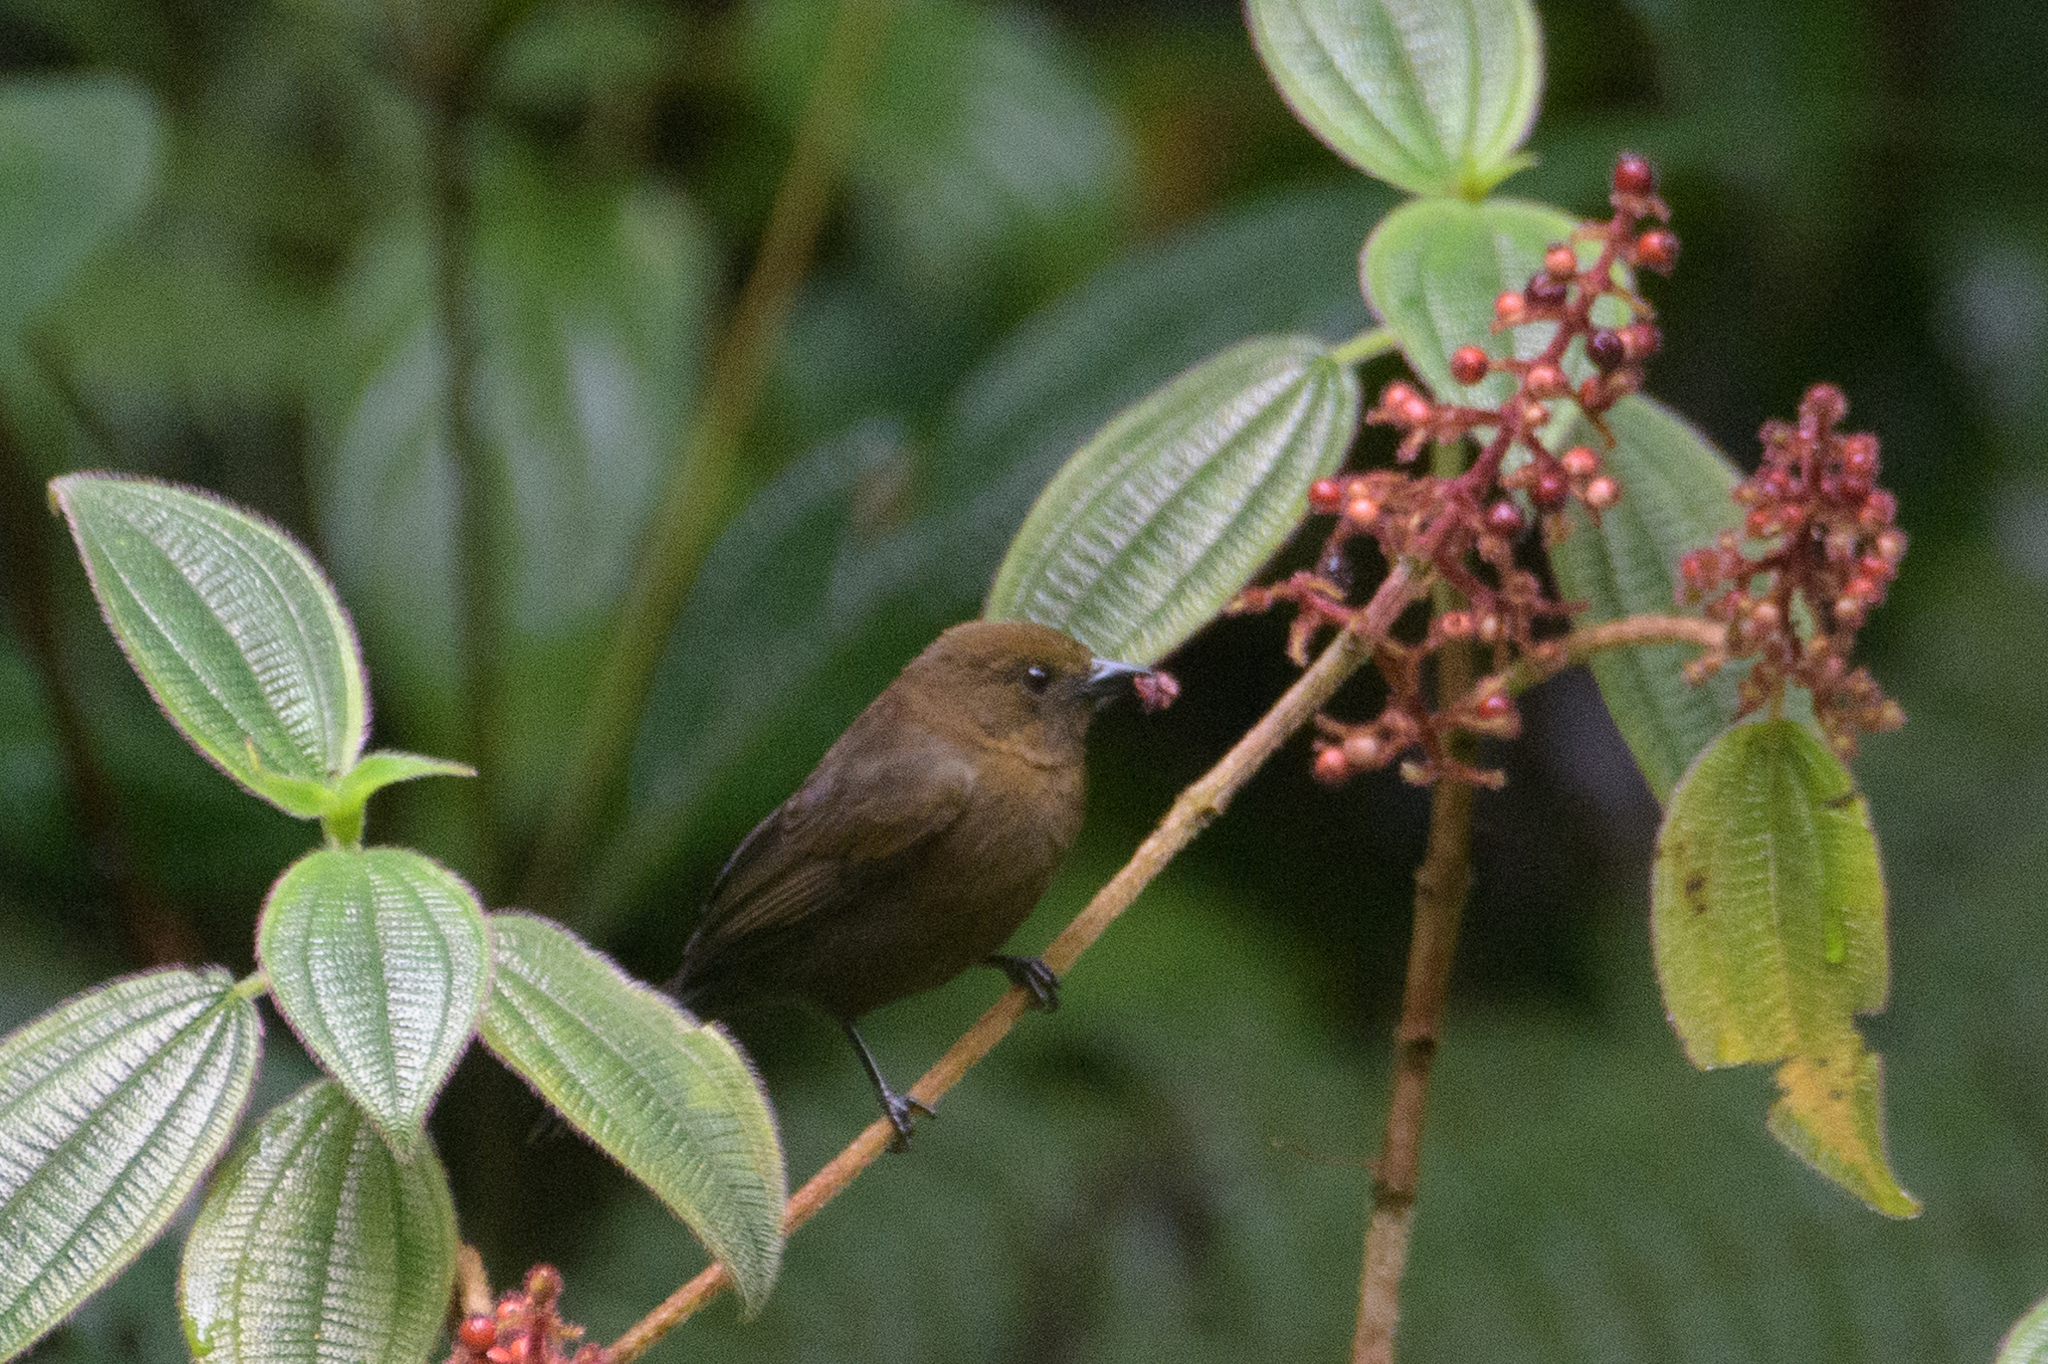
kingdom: Animalia
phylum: Chordata
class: Aves
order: Passeriformes
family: Thraupidae
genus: Tachyphonus
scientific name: Tachyphonus delatrii
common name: Tawny-crested tanager
